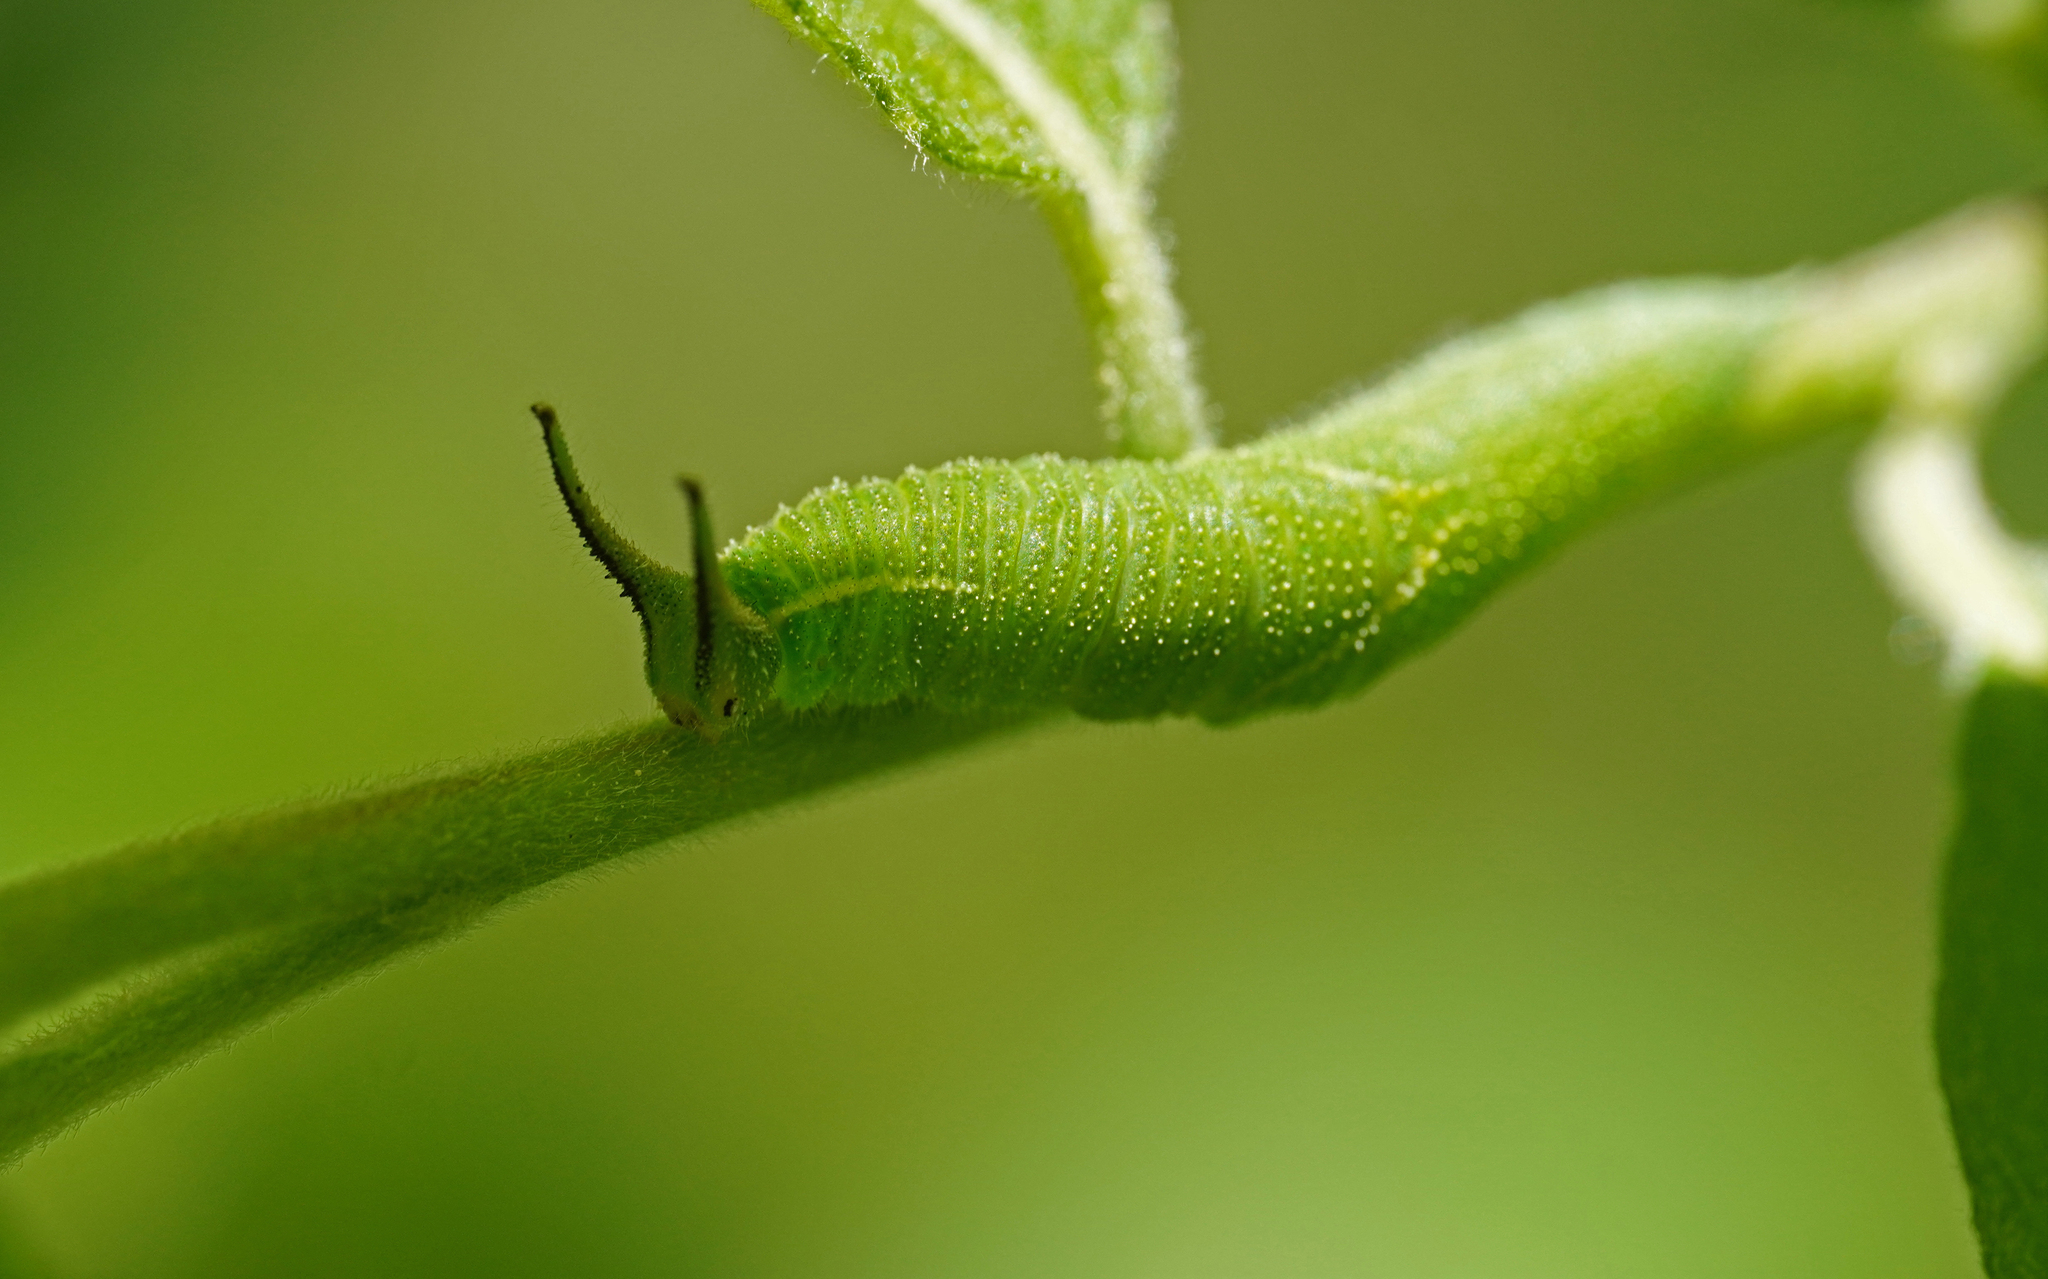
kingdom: Animalia
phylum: Arthropoda
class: Insecta
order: Lepidoptera
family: Nymphalidae
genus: Apatura
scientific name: Apatura iris
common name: Purple emperor
